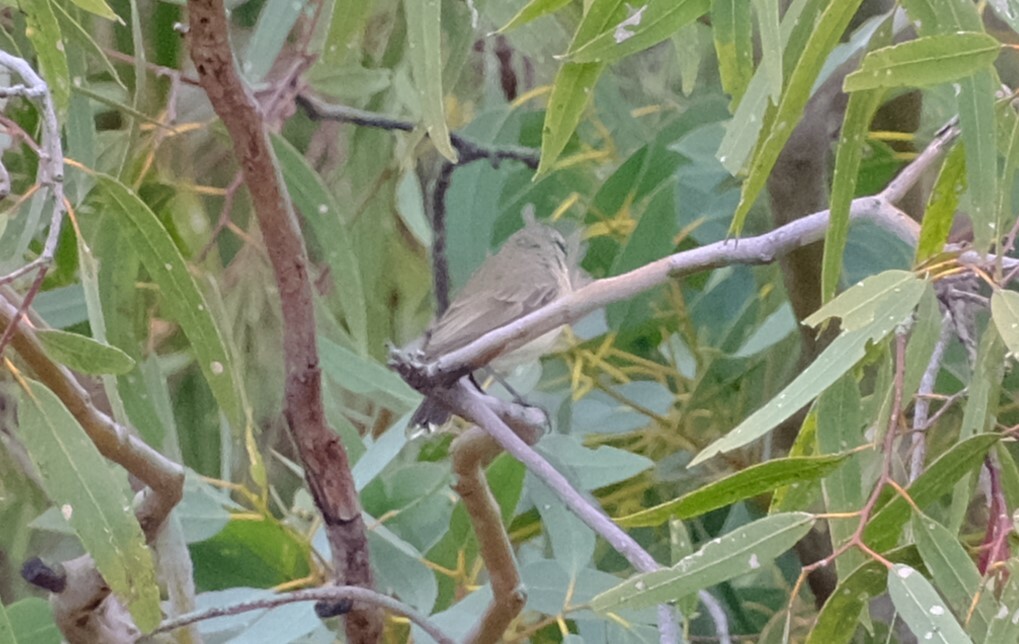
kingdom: Animalia
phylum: Chordata
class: Aves
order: Passeriformes
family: Acanthizidae
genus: Acanthiza
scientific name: Acanthiza chrysorrhoa
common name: Yellow-rumped thornbill
